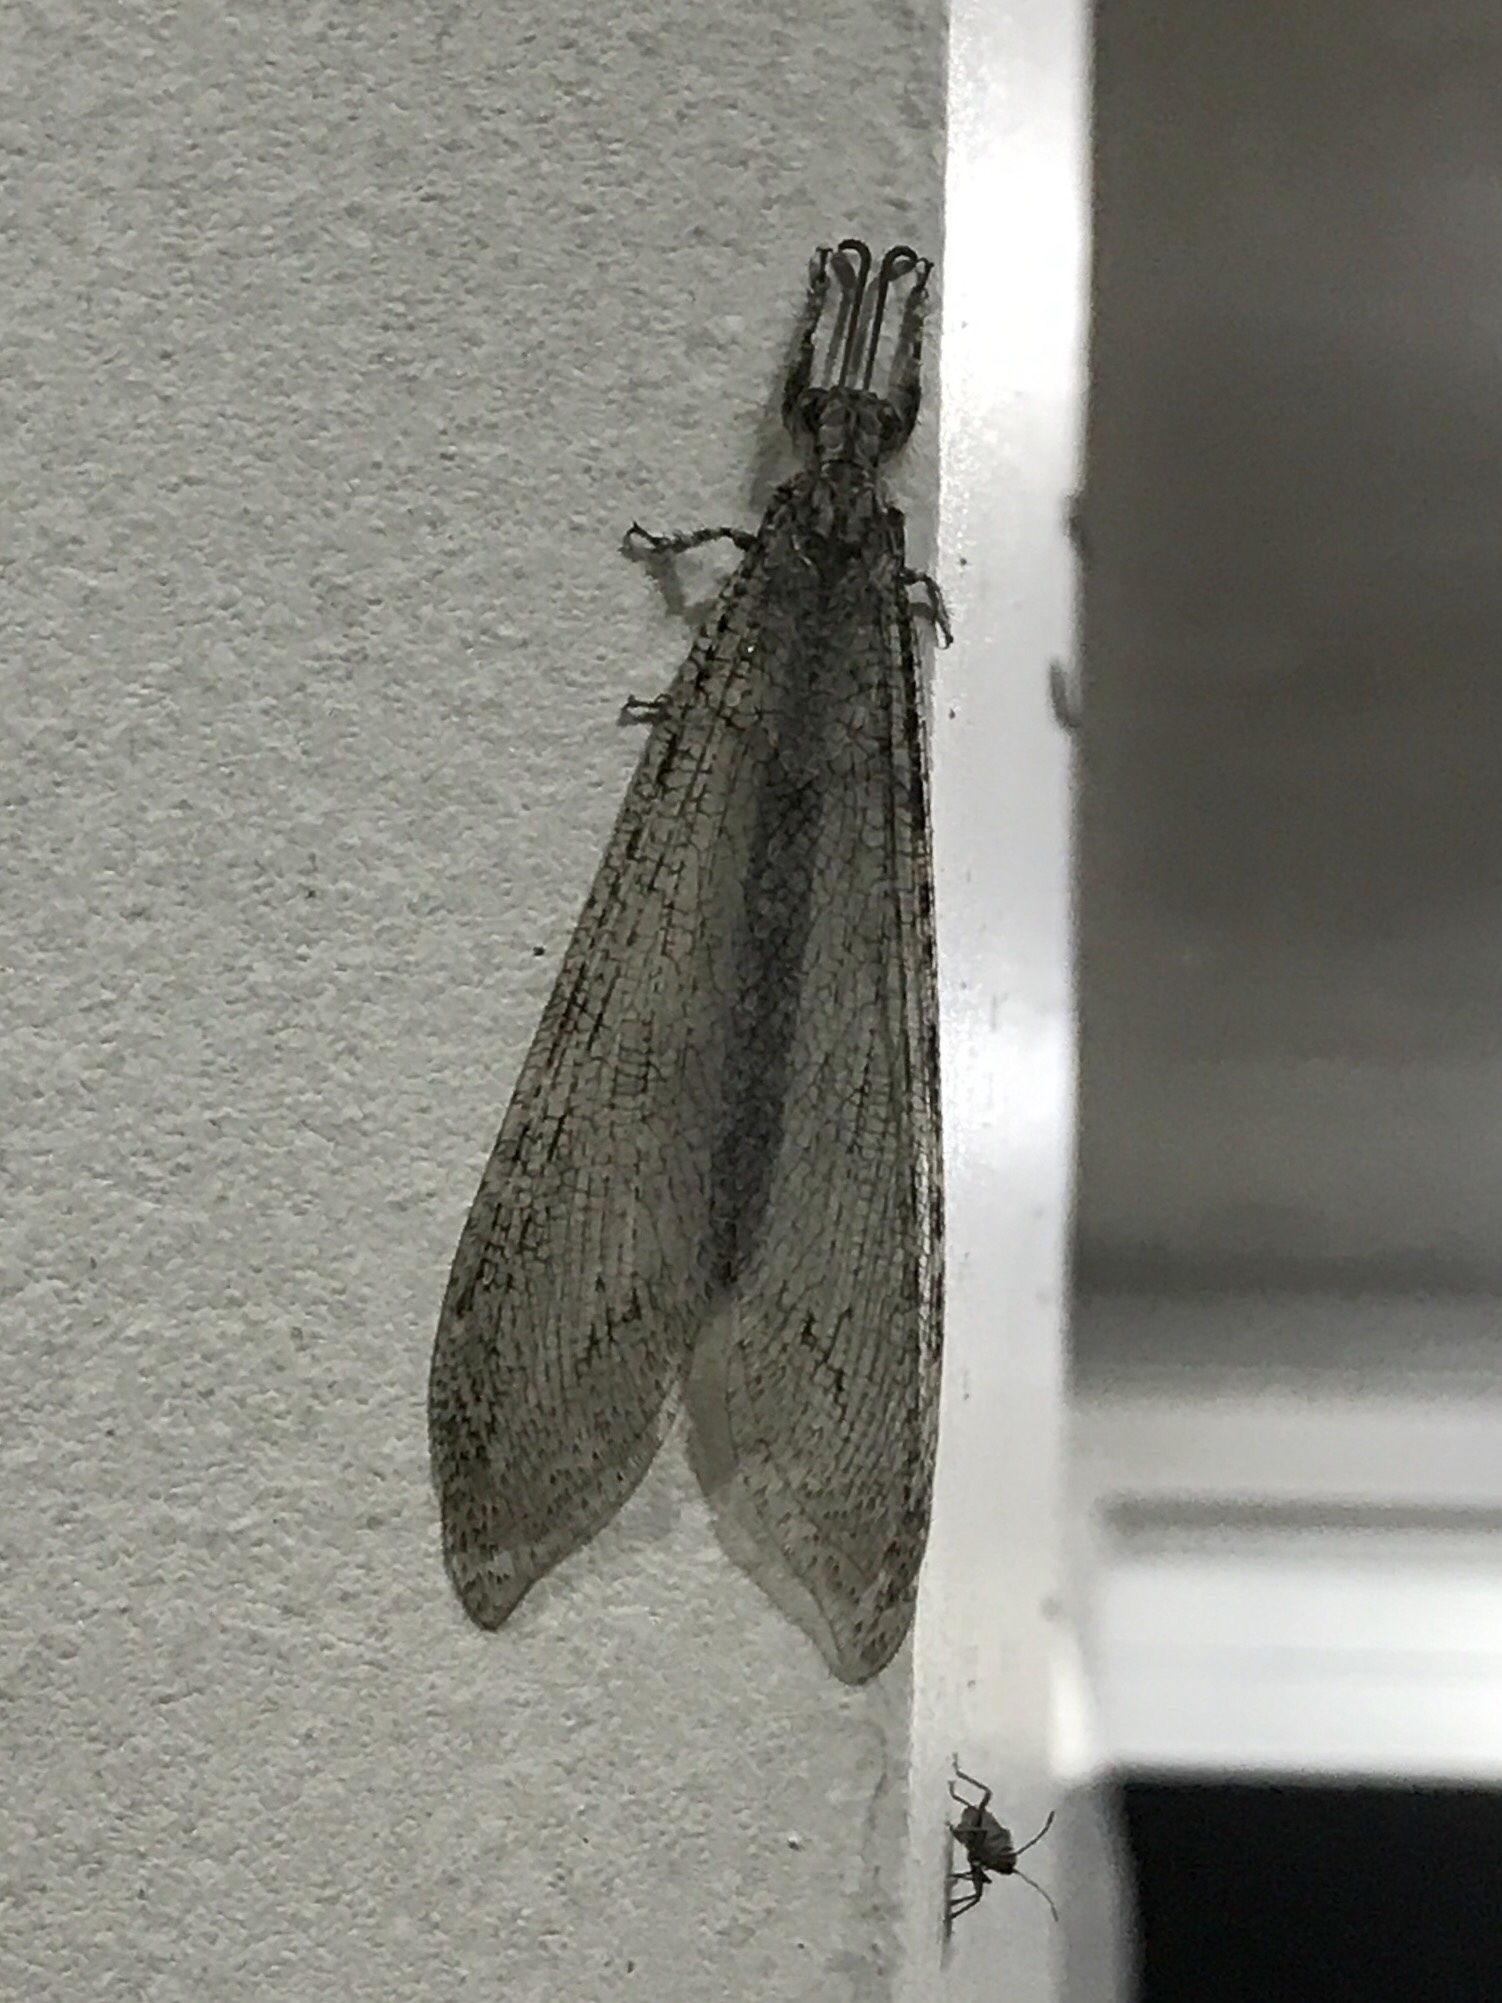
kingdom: Animalia
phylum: Arthropoda
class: Insecta
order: Neuroptera
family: Myrmeleontidae
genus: Vella
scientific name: Vella fallax
